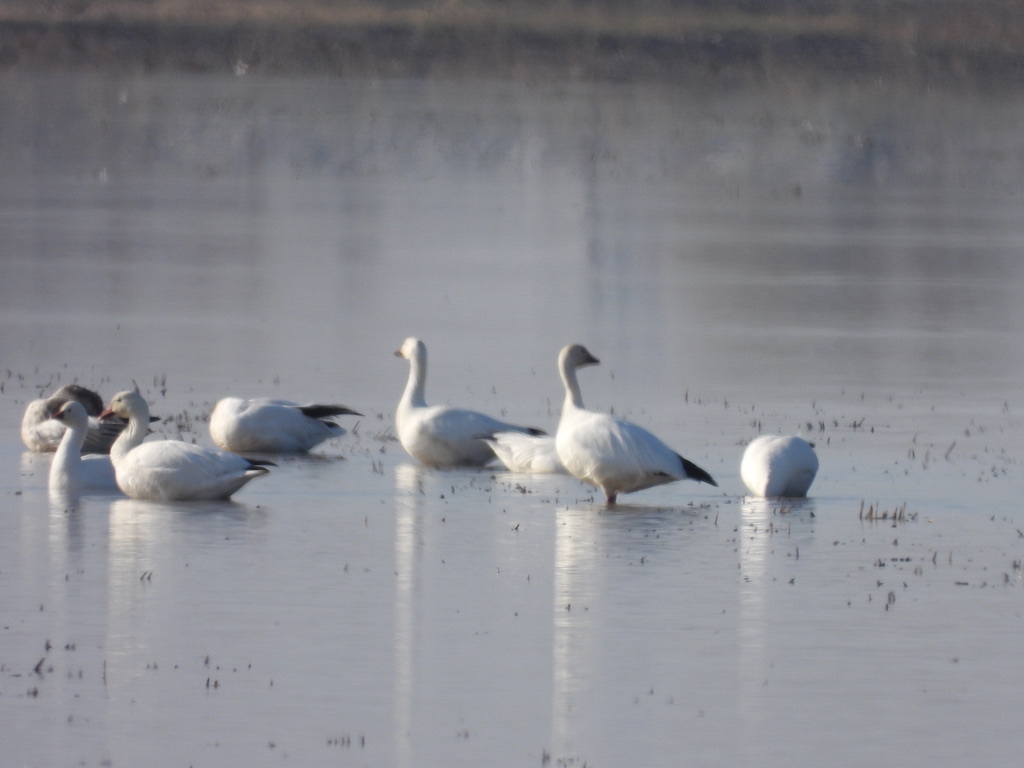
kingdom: Animalia
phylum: Chordata
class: Aves
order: Anseriformes
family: Anatidae
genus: Anser
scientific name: Anser caerulescens
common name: Snow goose
